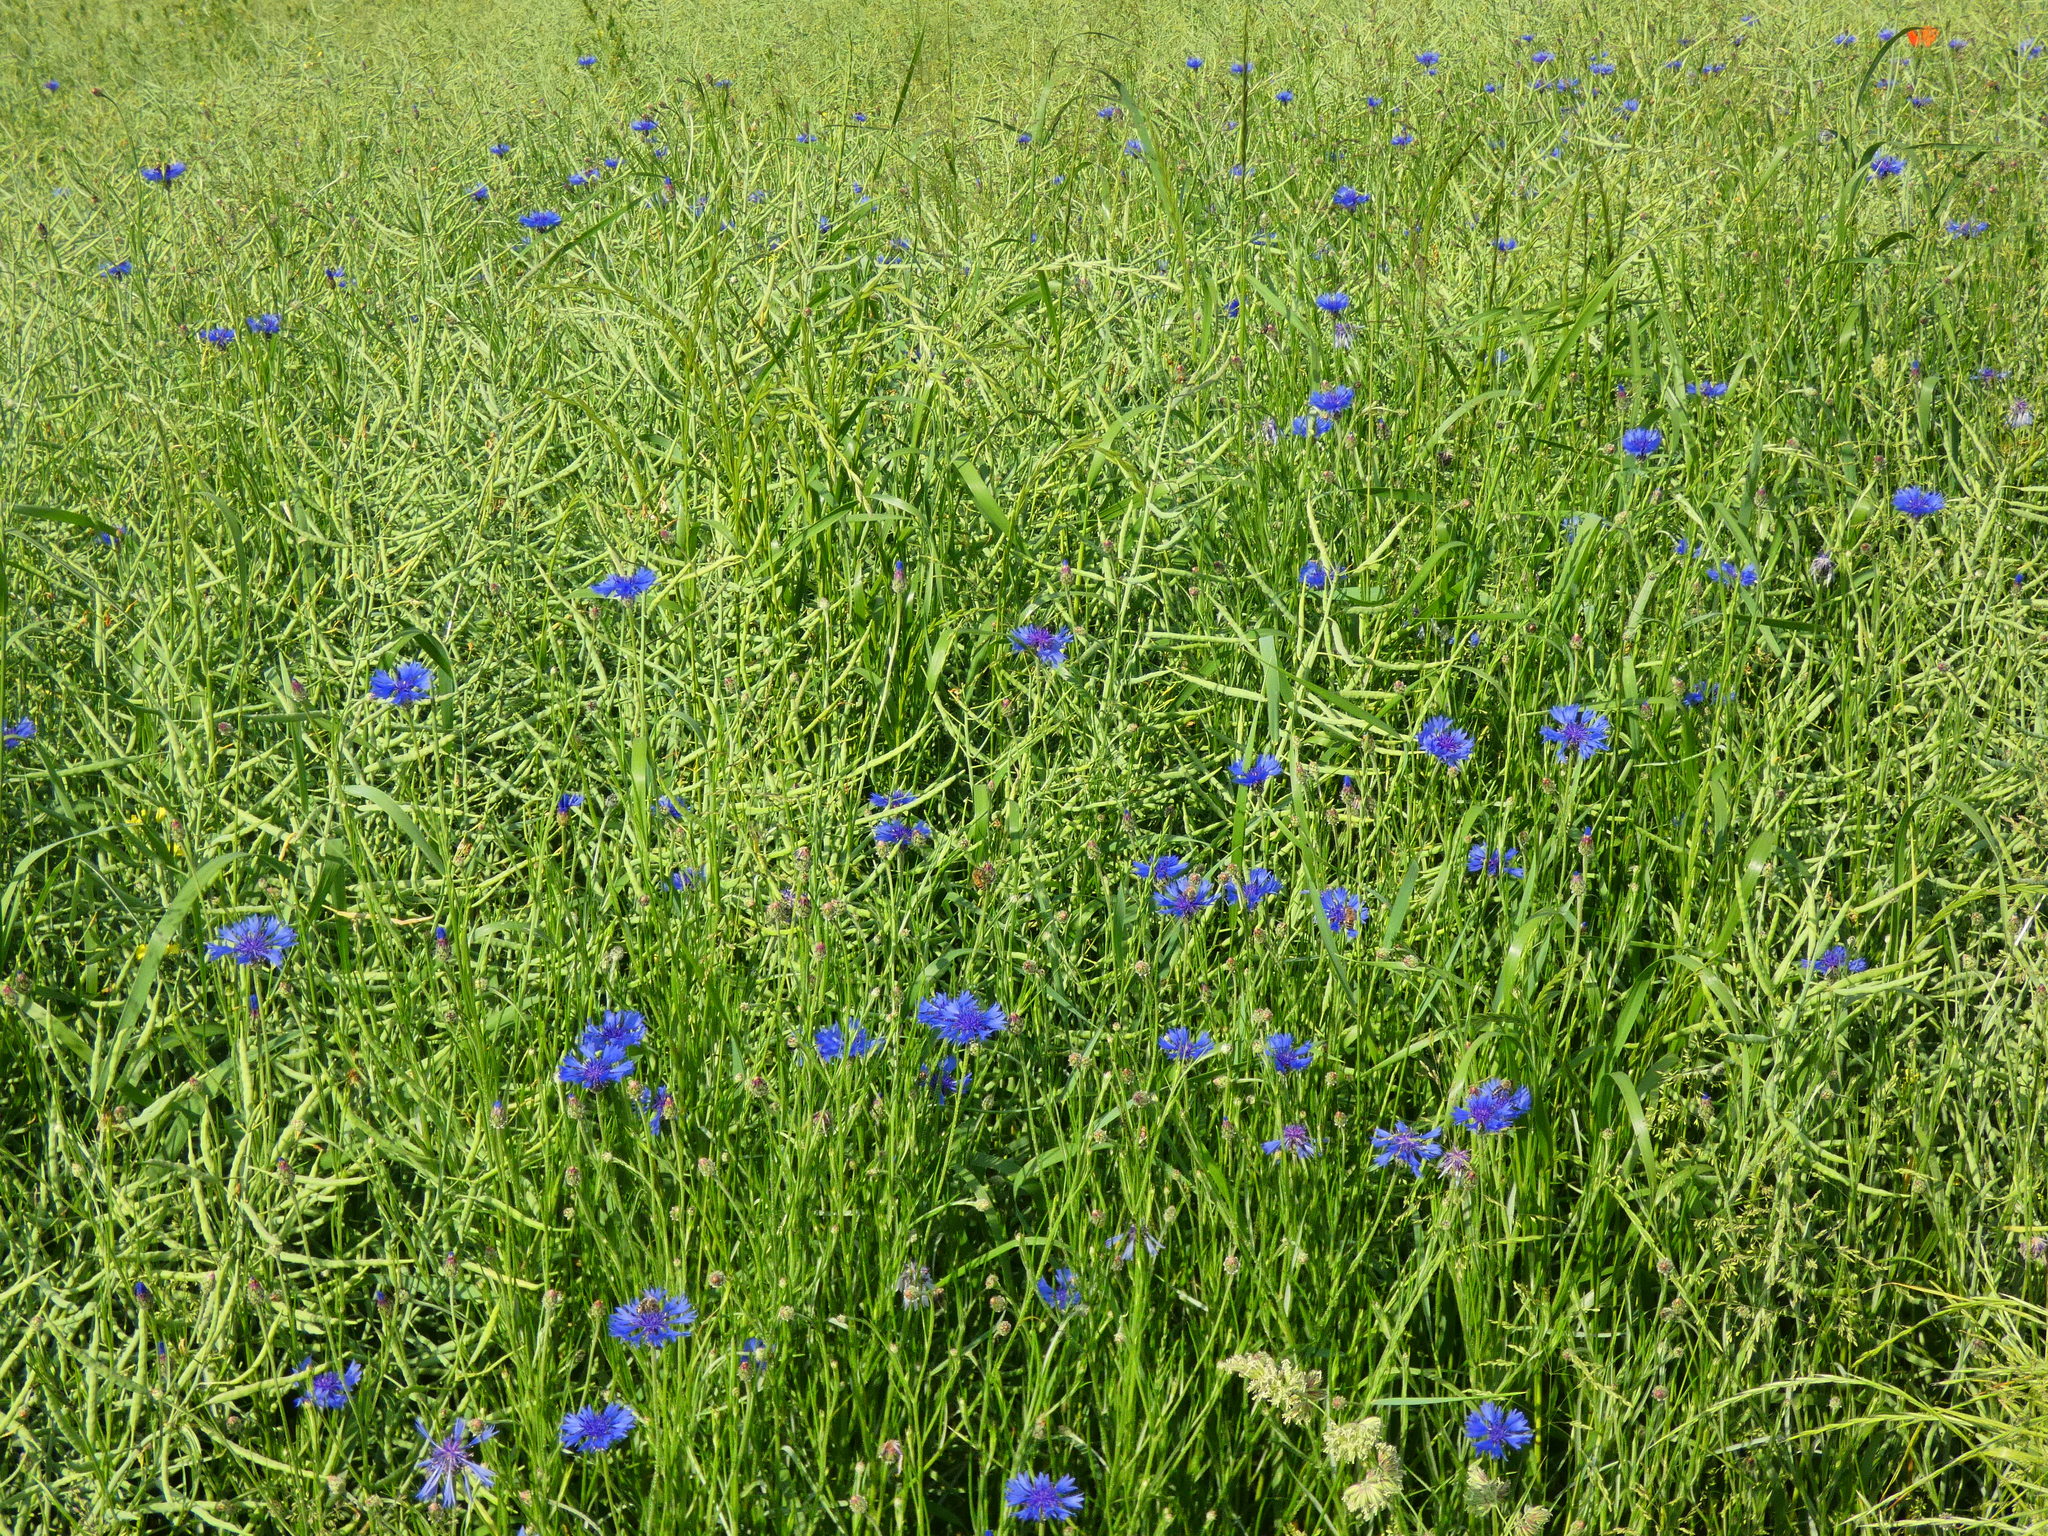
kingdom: Plantae
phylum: Tracheophyta
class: Magnoliopsida
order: Asterales
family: Asteraceae
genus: Centaurea
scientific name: Centaurea cyanus
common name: Cornflower
